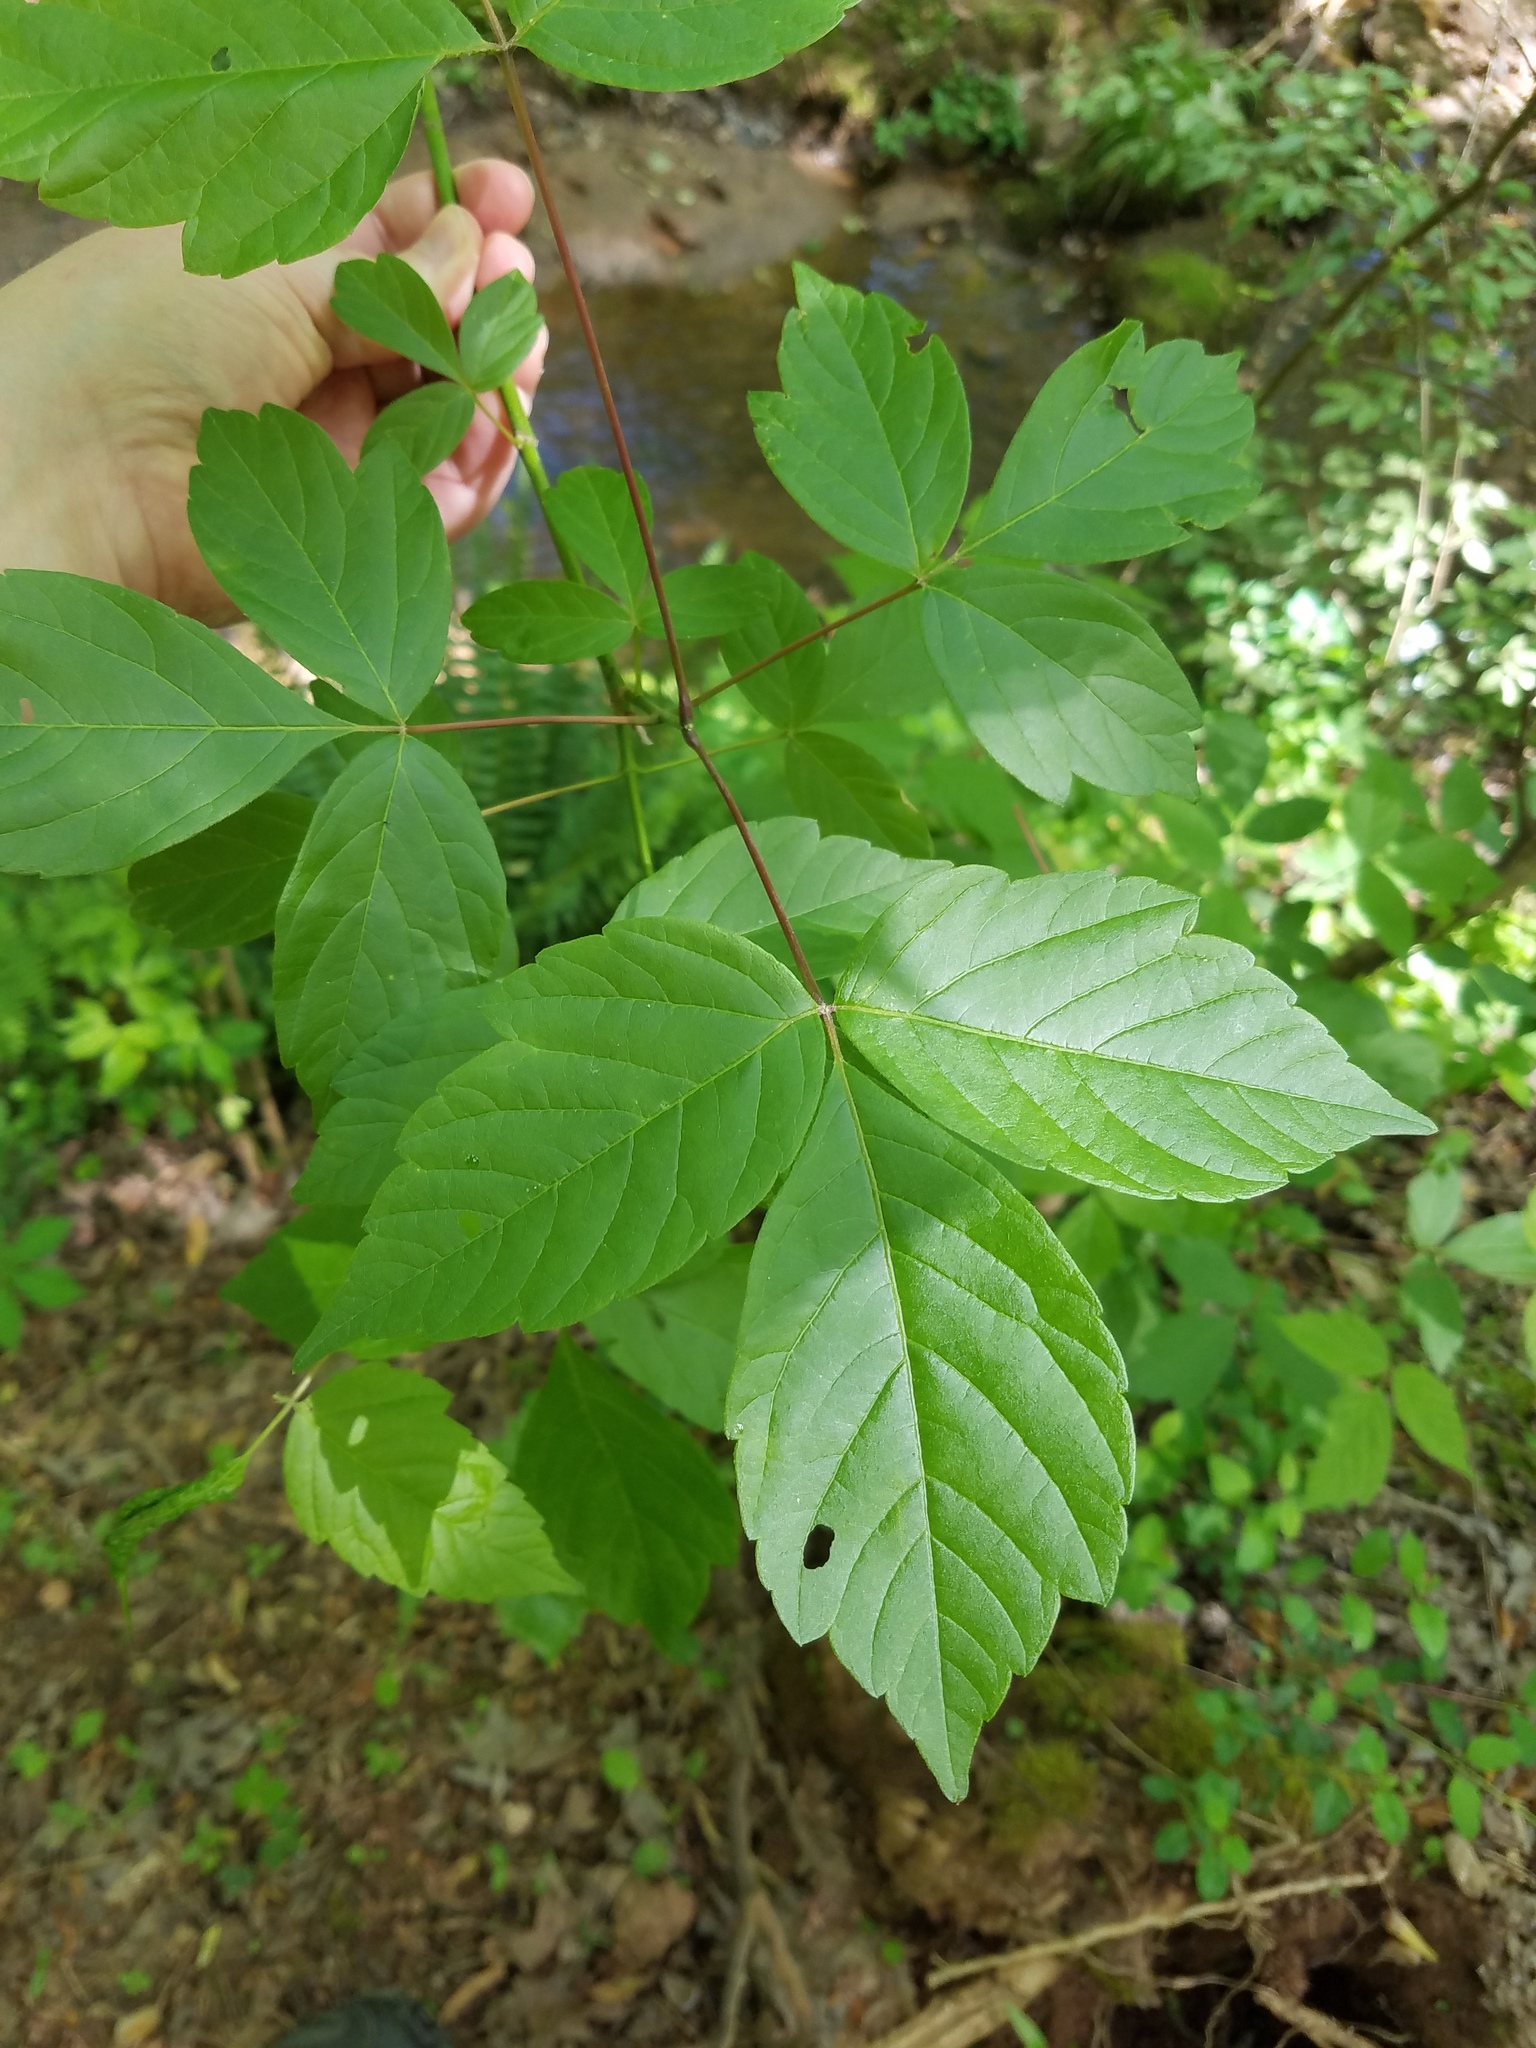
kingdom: Plantae
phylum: Tracheophyta
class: Magnoliopsida
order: Sapindales
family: Sapindaceae
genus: Acer
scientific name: Acer negundo
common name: Ashleaf maple
